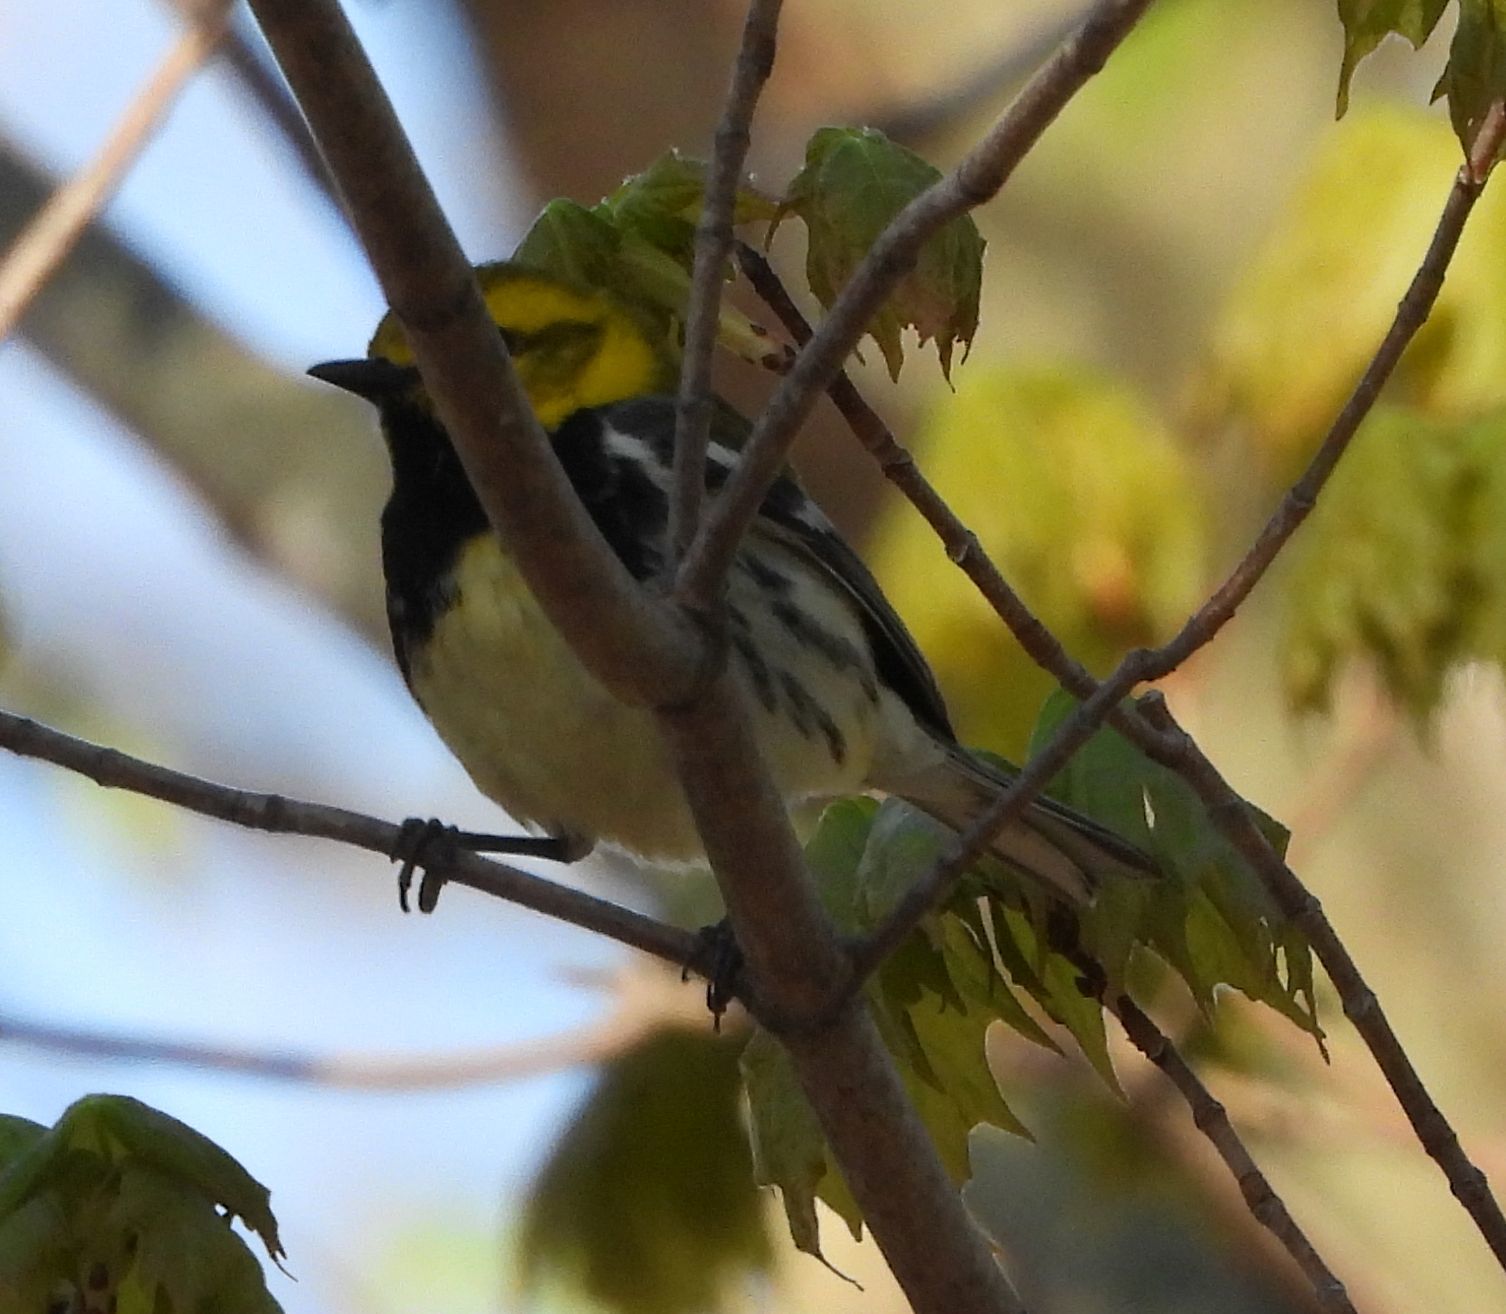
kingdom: Animalia
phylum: Chordata
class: Aves
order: Passeriformes
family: Parulidae
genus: Setophaga
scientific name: Setophaga virens
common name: Black-throated green warbler
